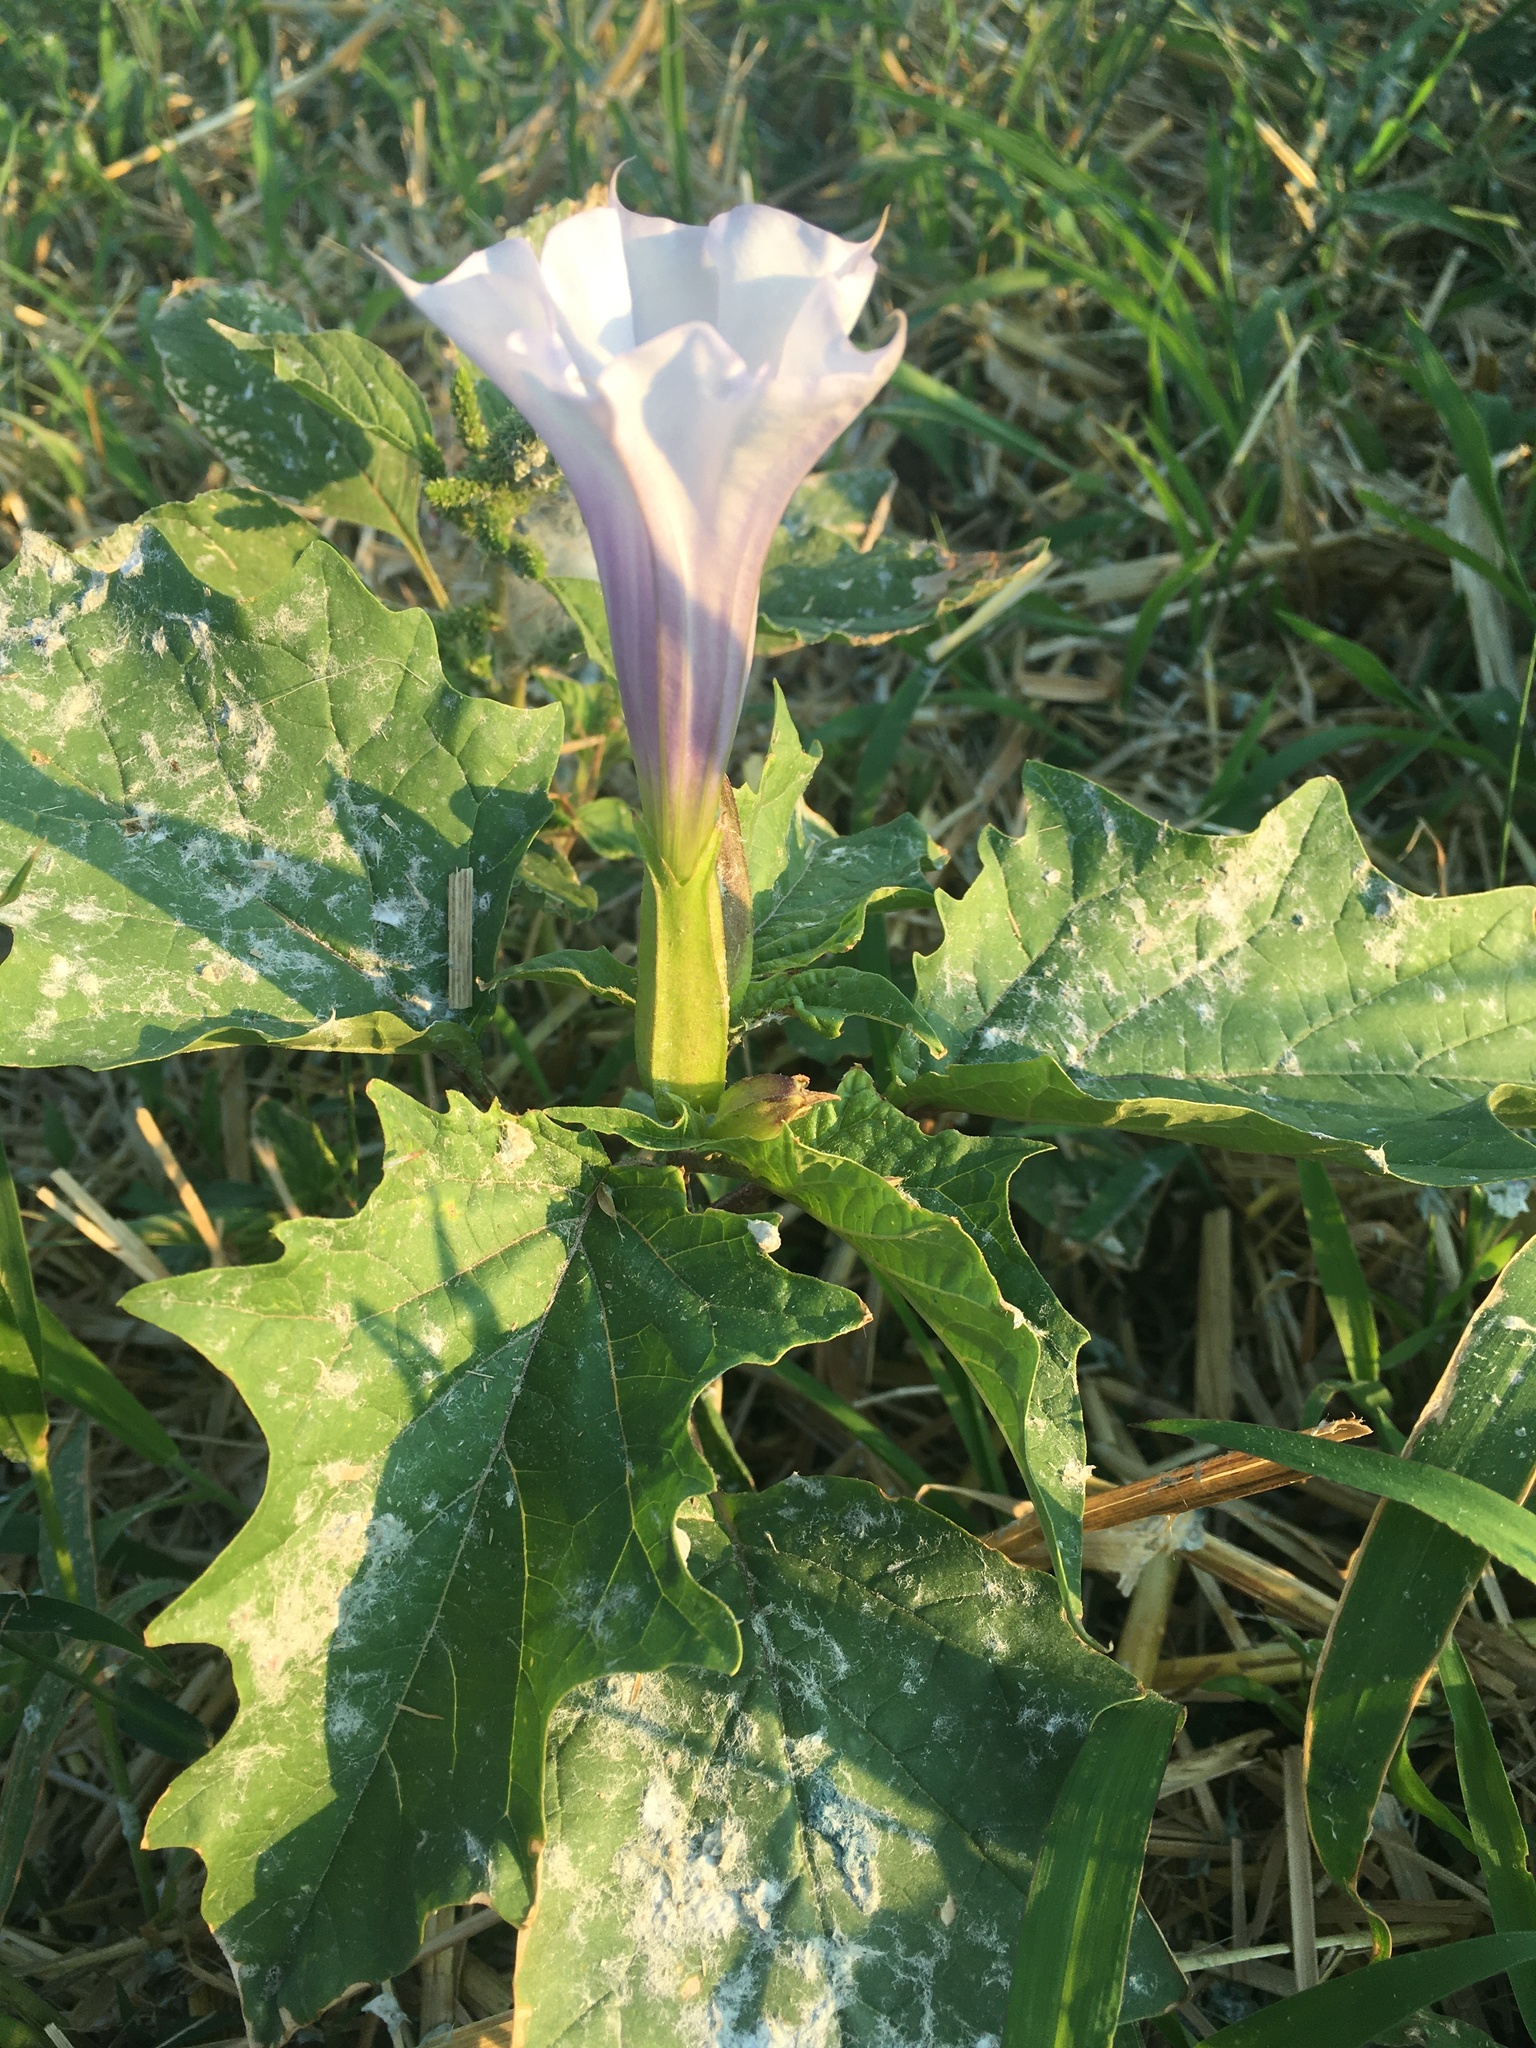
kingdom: Plantae
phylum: Tracheophyta
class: Magnoliopsida
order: Solanales
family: Solanaceae
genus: Datura
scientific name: Datura stramonium
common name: Thorn-apple
